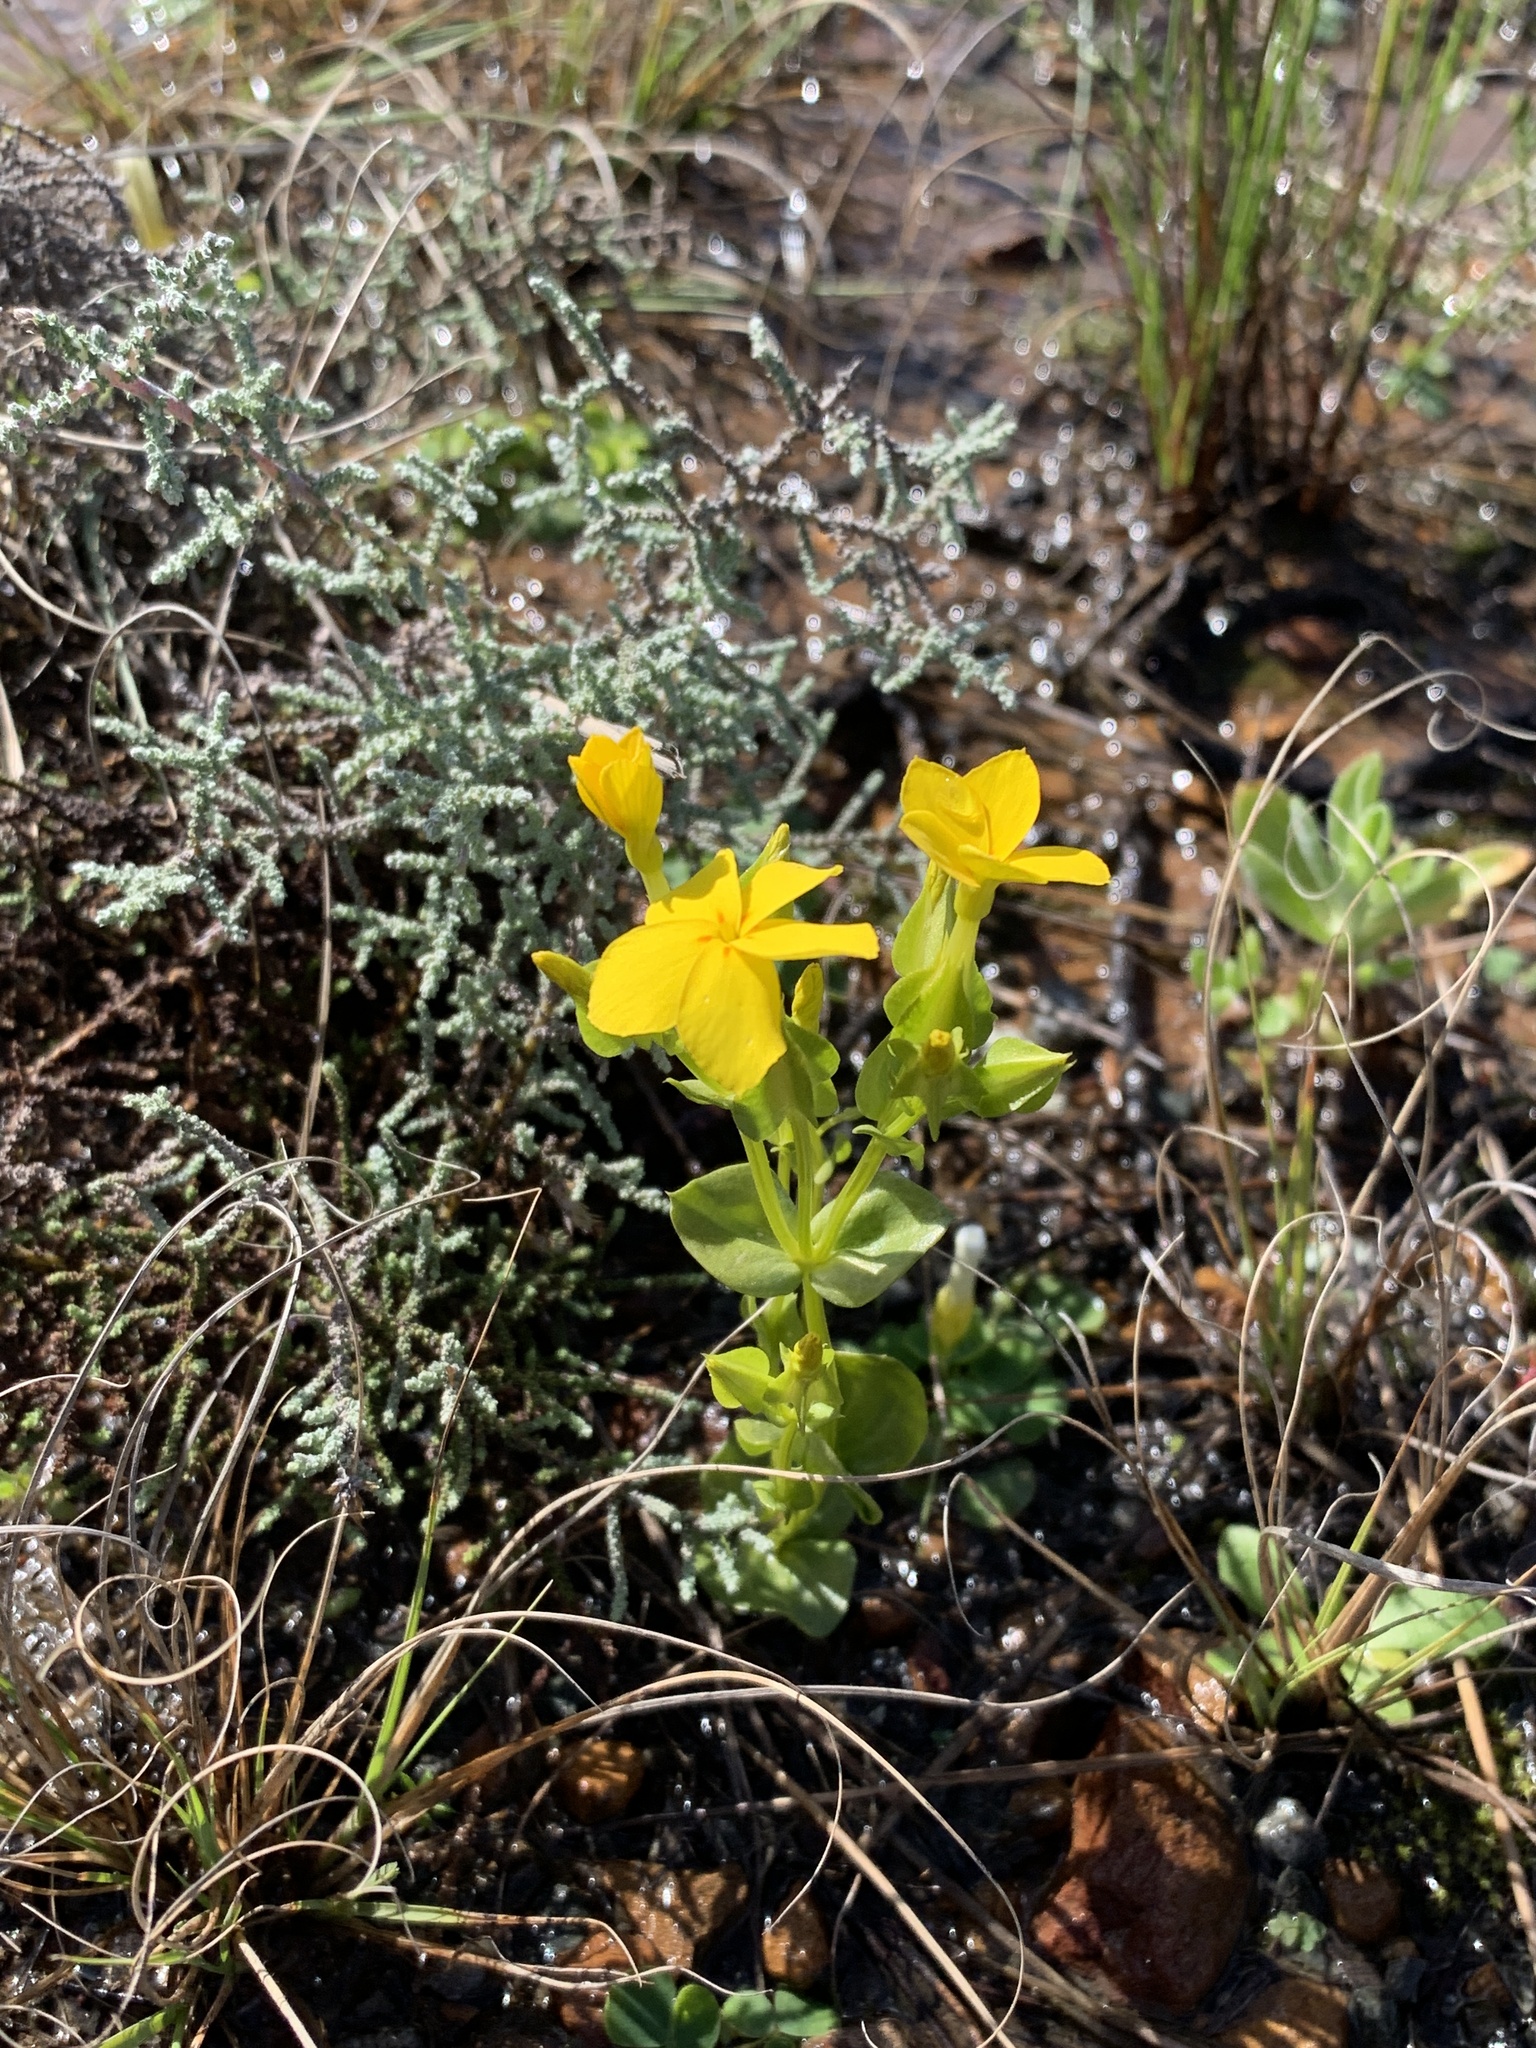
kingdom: Plantae
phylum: Tracheophyta
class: Magnoliopsida
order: Gentianales
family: Gentianaceae
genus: Sebaea
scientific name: Sebaea exacoides
